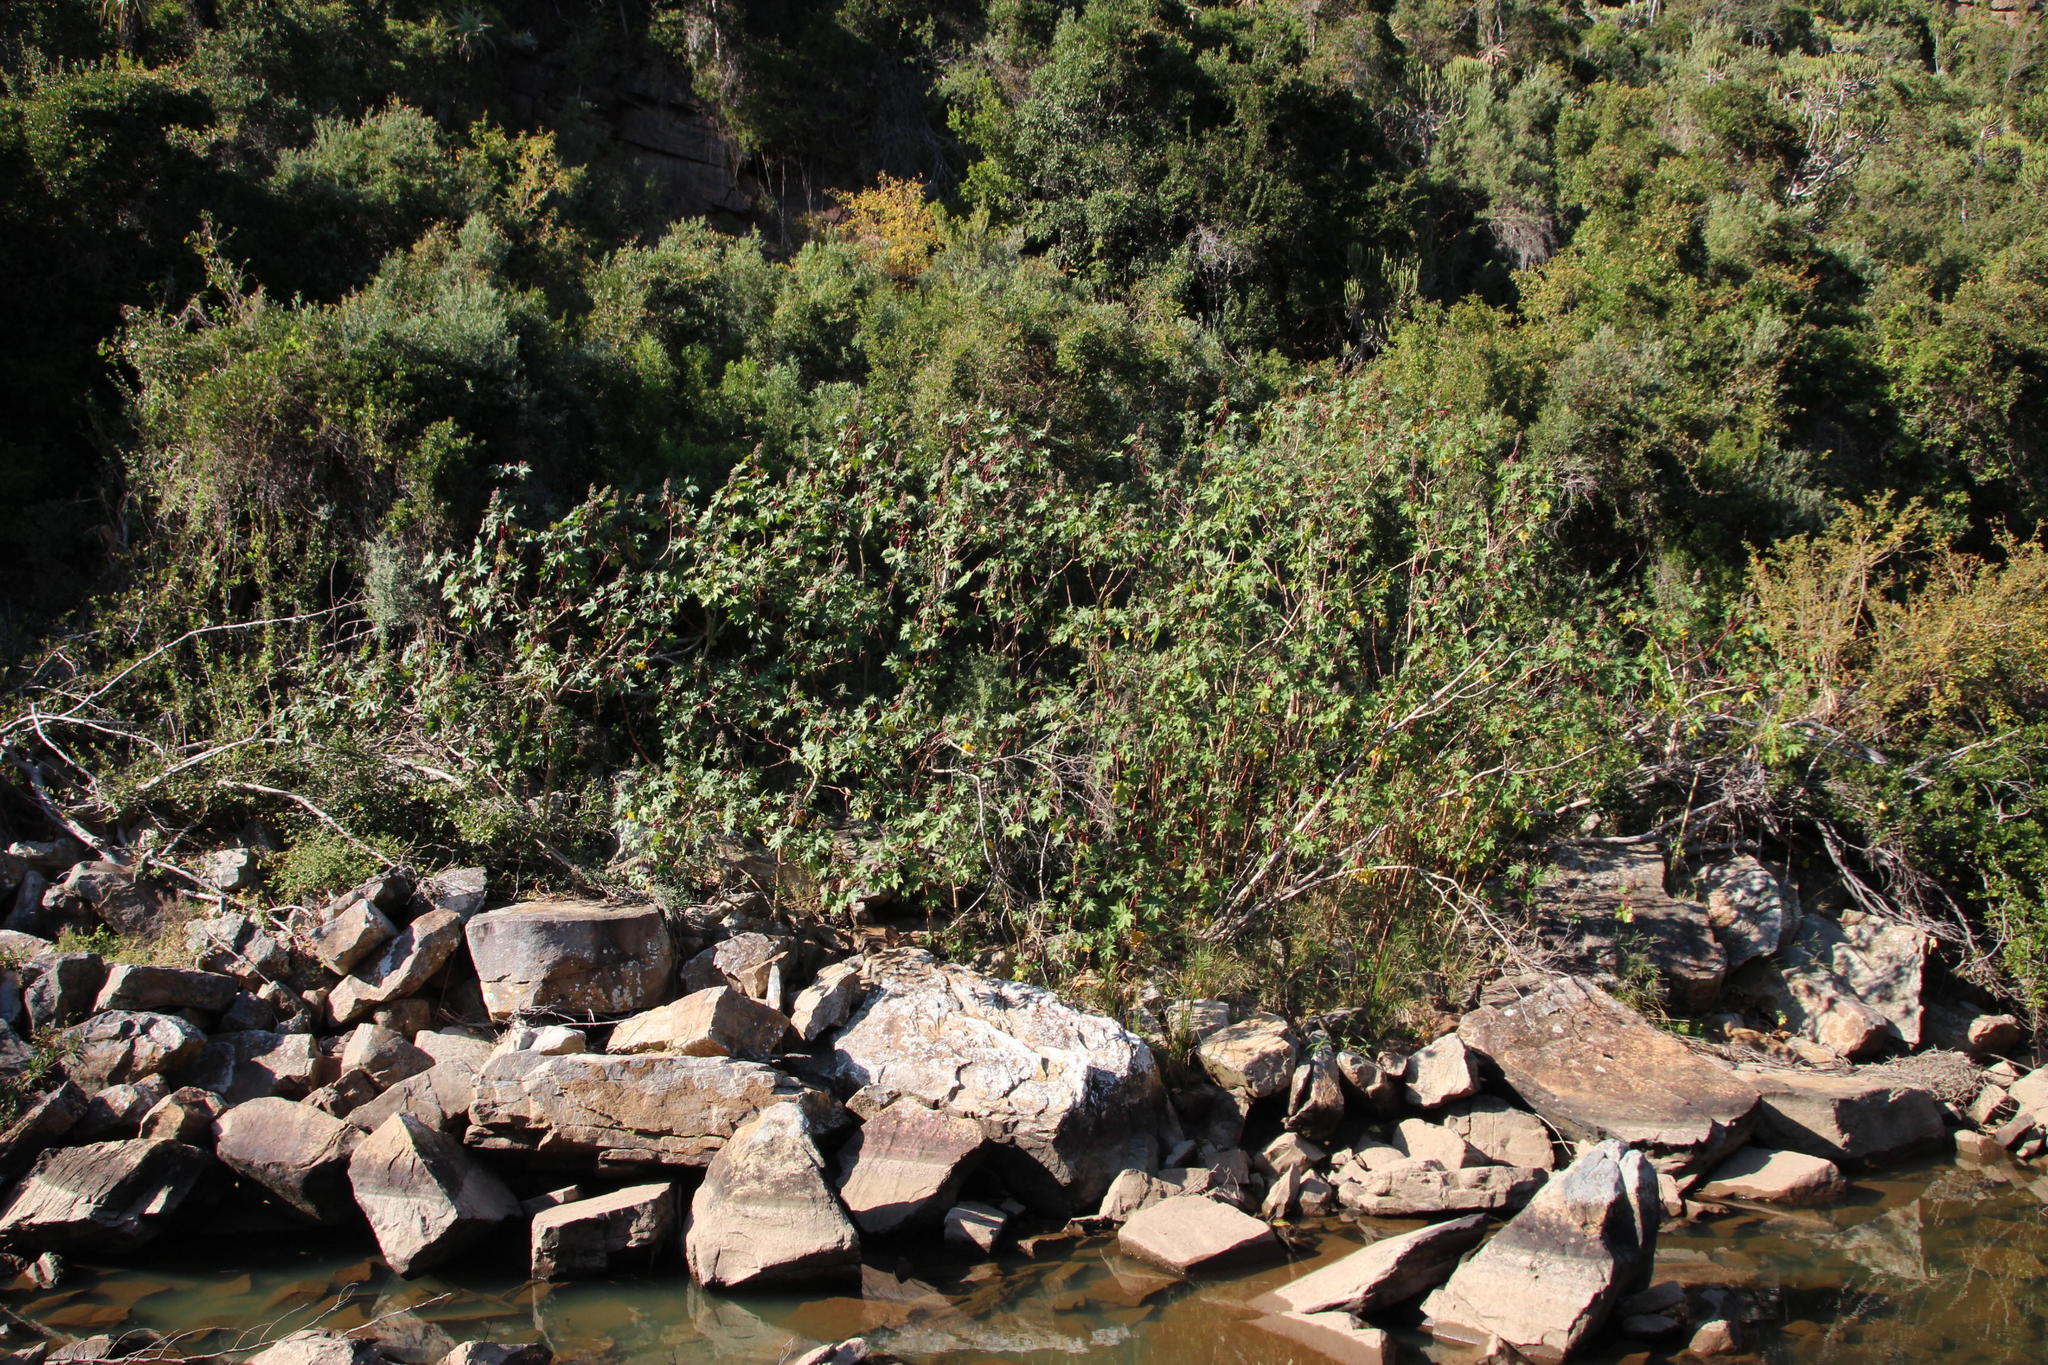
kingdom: Plantae
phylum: Tracheophyta
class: Magnoliopsida
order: Malpighiales
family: Euphorbiaceae
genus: Ricinus
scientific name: Ricinus communis
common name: Castor-oil-plant
